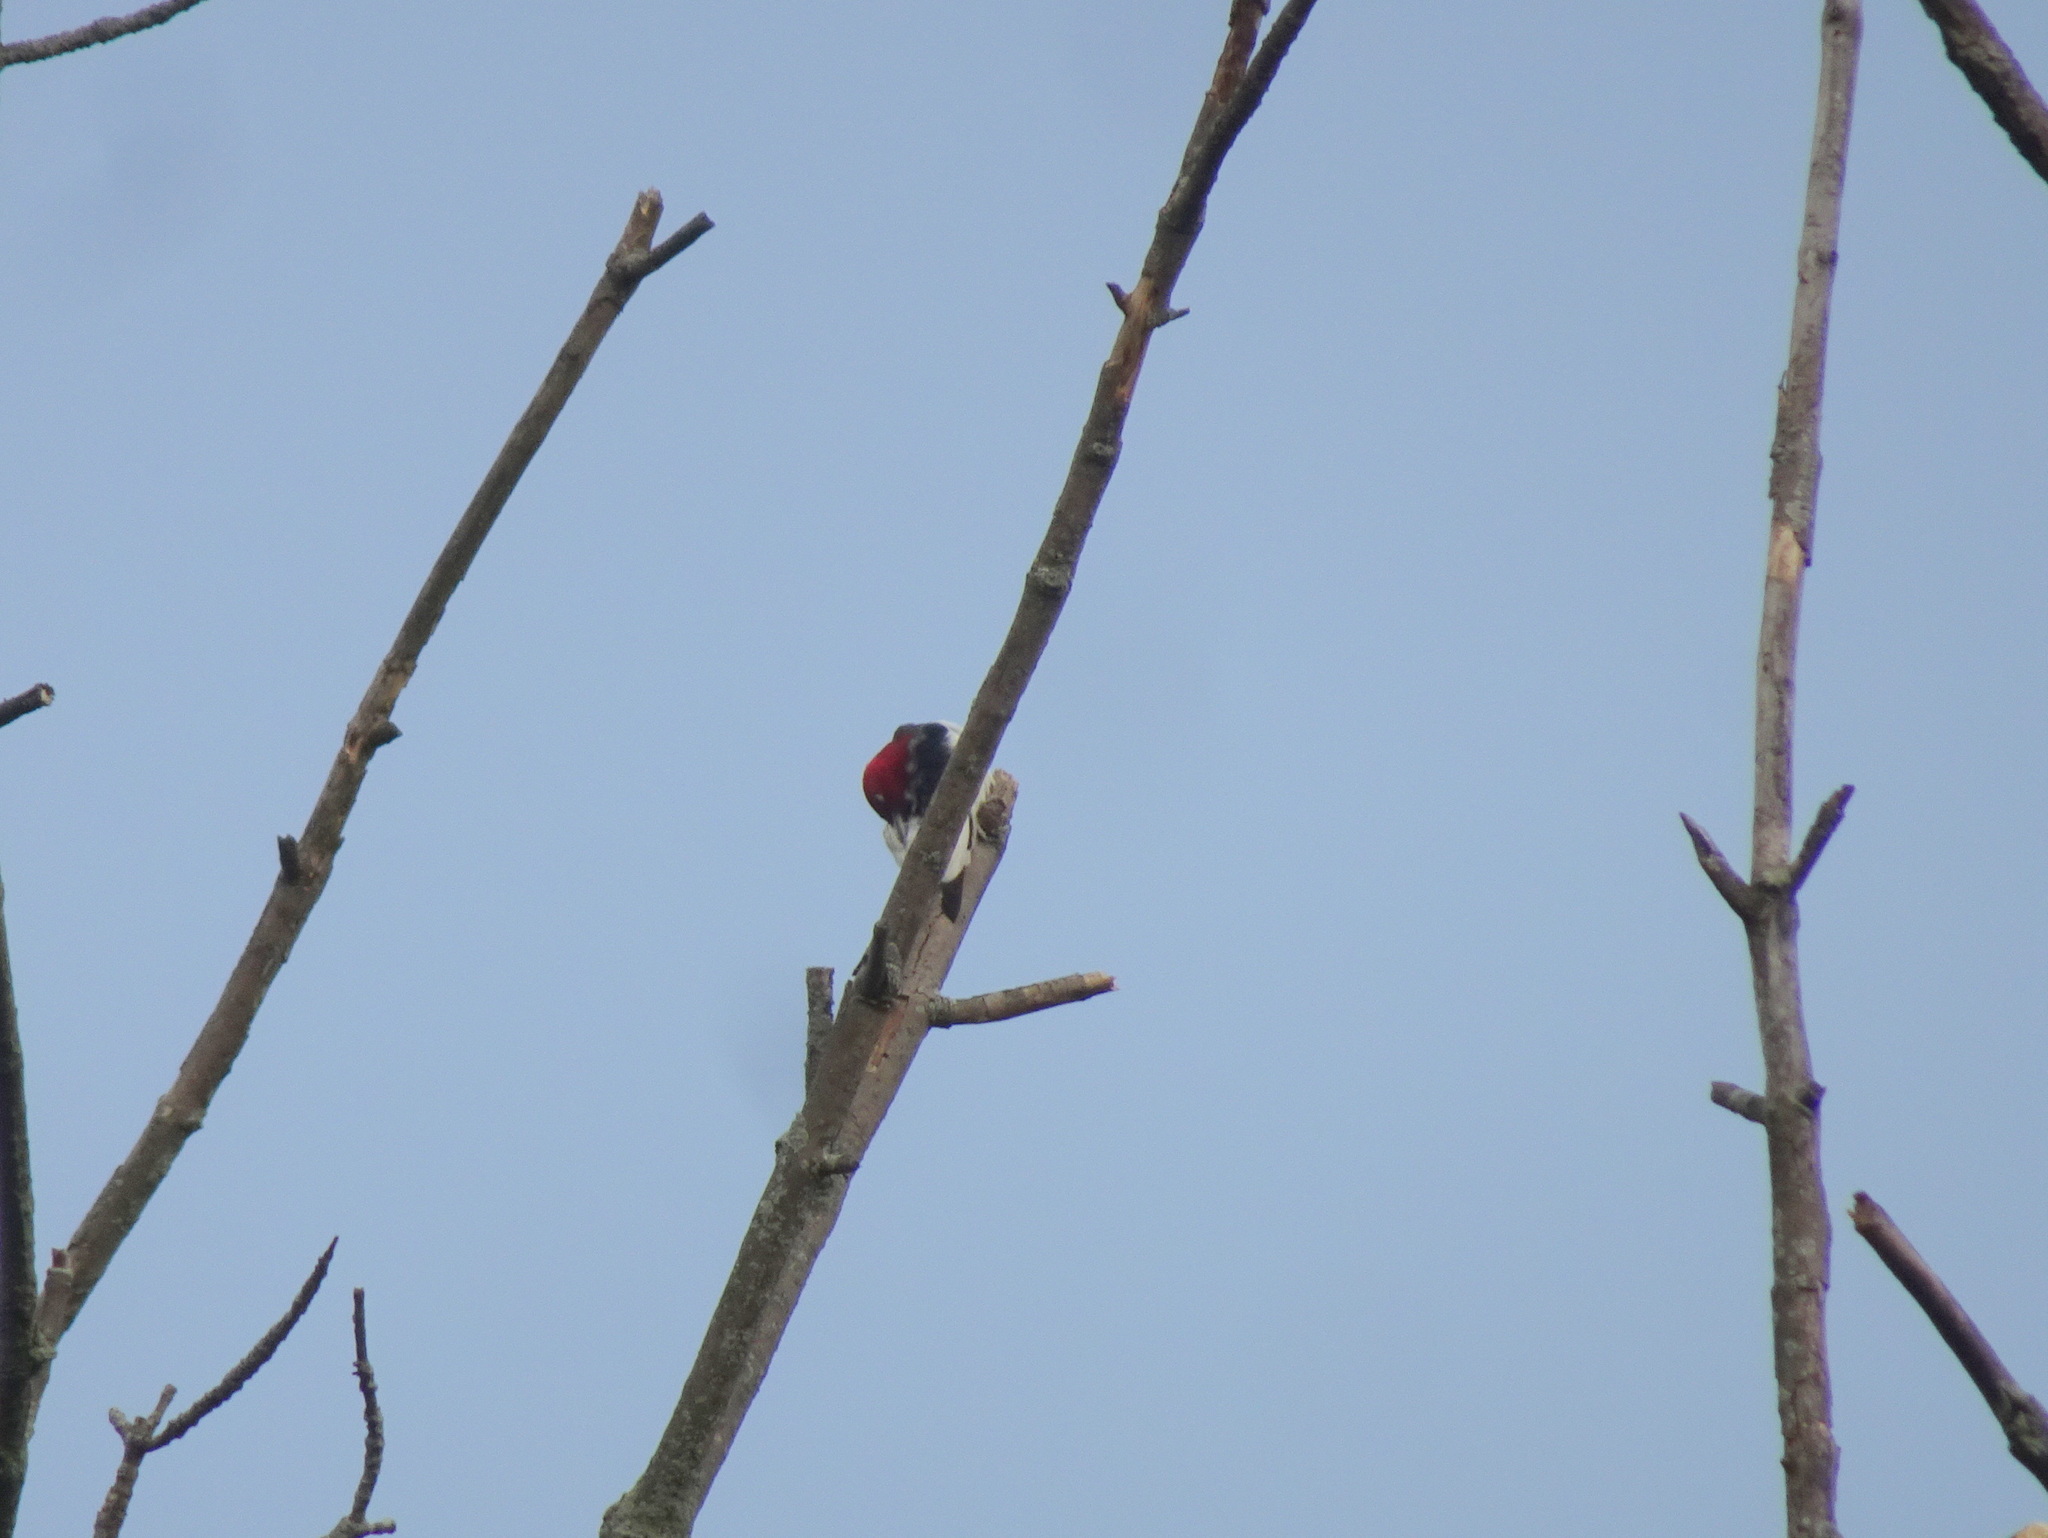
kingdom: Animalia
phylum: Chordata
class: Aves
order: Piciformes
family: Picidae
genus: Melanerpes
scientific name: Melanerpes erythrocephalus
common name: Red-headed woodpecker
